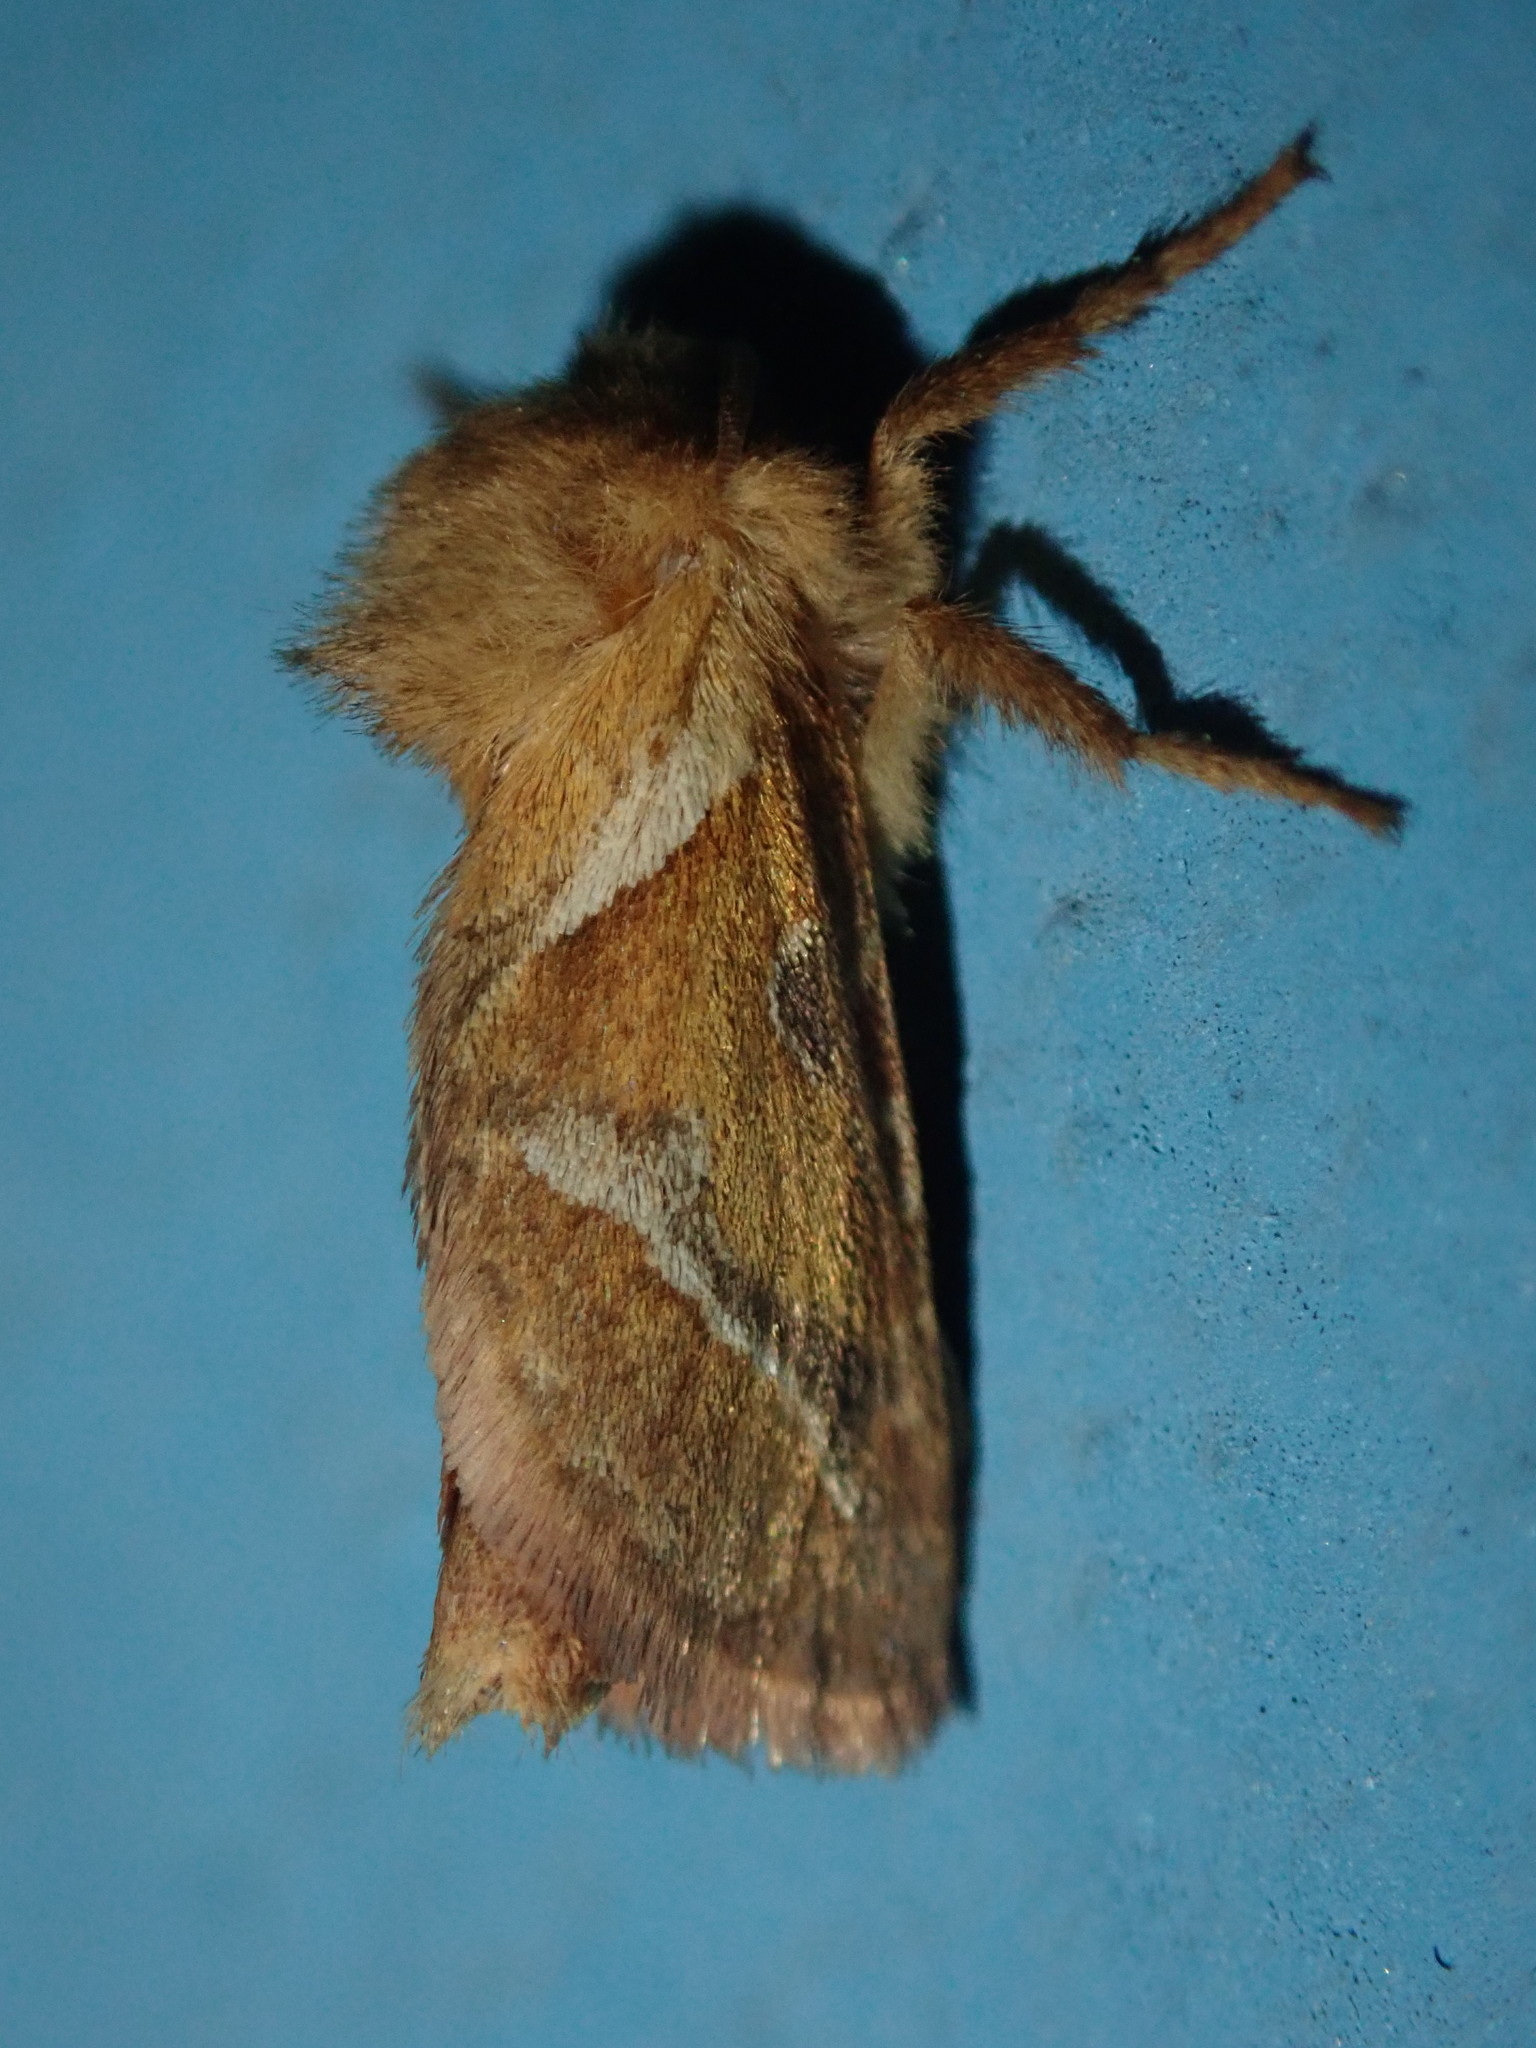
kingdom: Animalia
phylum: Arthropoda
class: Insecta
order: Lepidoptera
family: Hepialidae
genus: Triodia
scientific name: Triodia sylvina
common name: Orange swift
